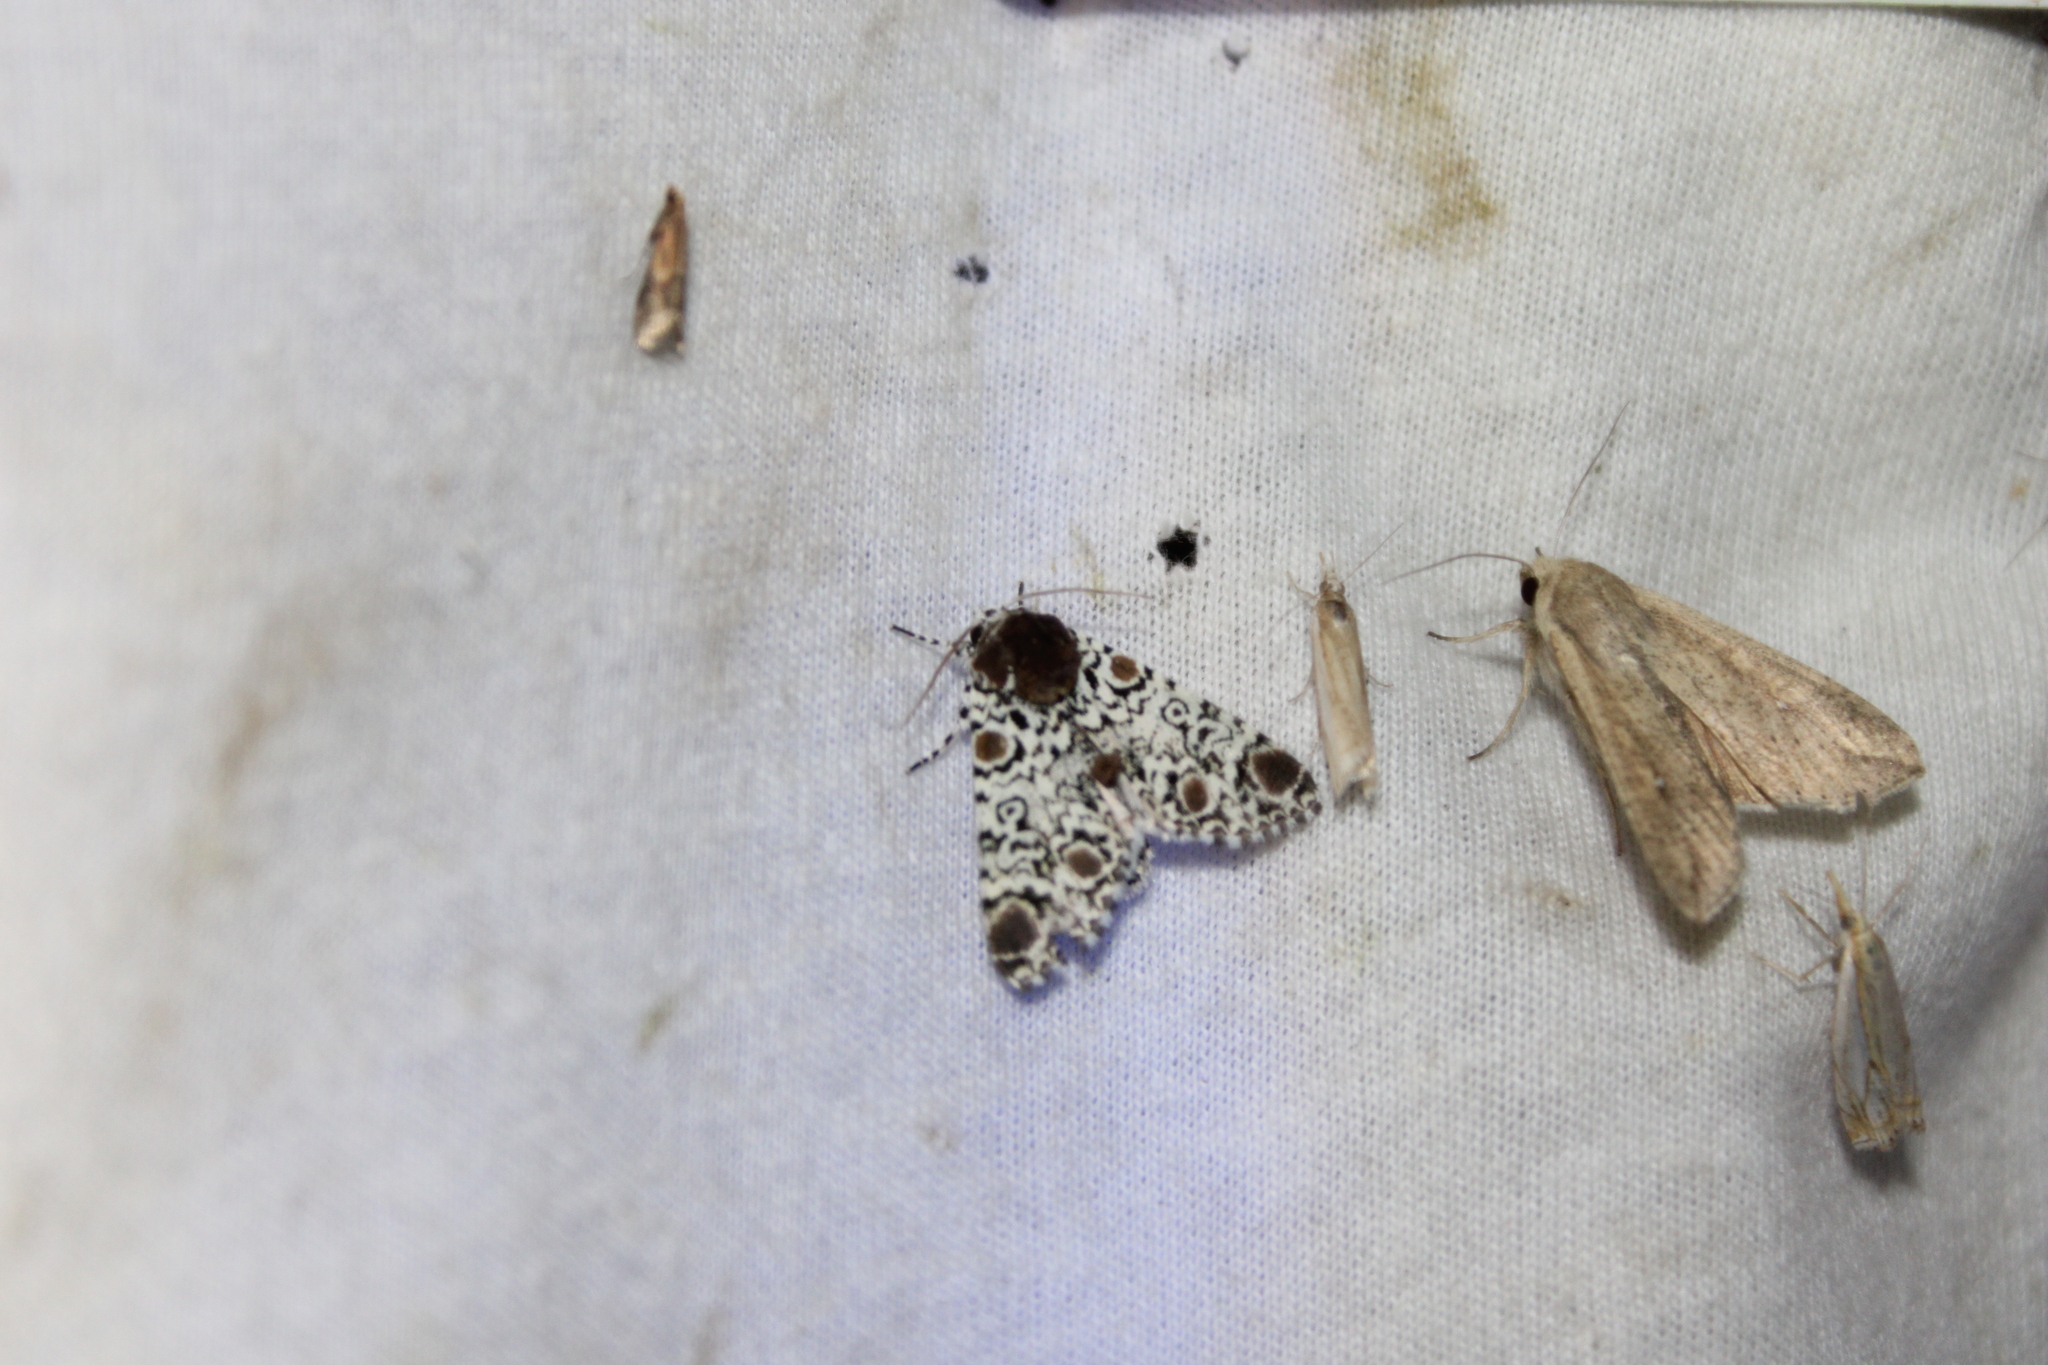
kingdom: Animalia
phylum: Arthropoda
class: Insecta
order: Lepidoptera
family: Noctuidae
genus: Harrisimemna
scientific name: Harrisimemna trisignata
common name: Harris threespot
